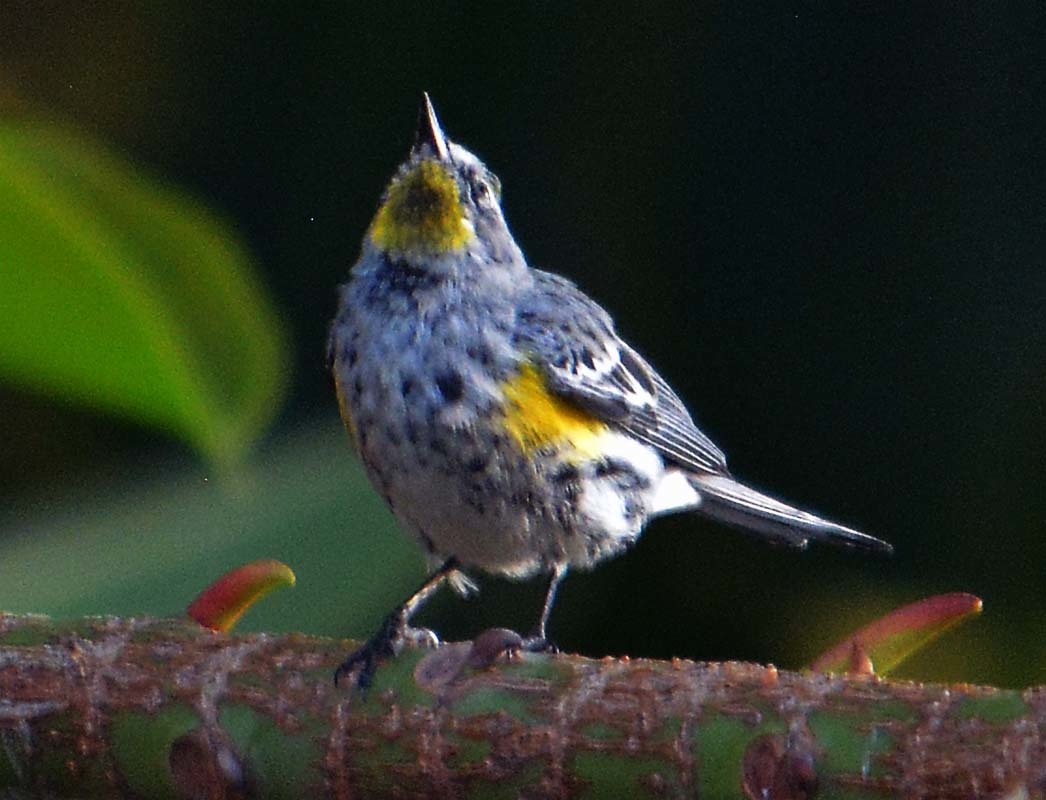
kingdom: Animalia
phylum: Chordata
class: Aves
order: Passeriformes
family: Parulidae
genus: Setophaga
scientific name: Setophaga coronata
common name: Myrtle warbler
